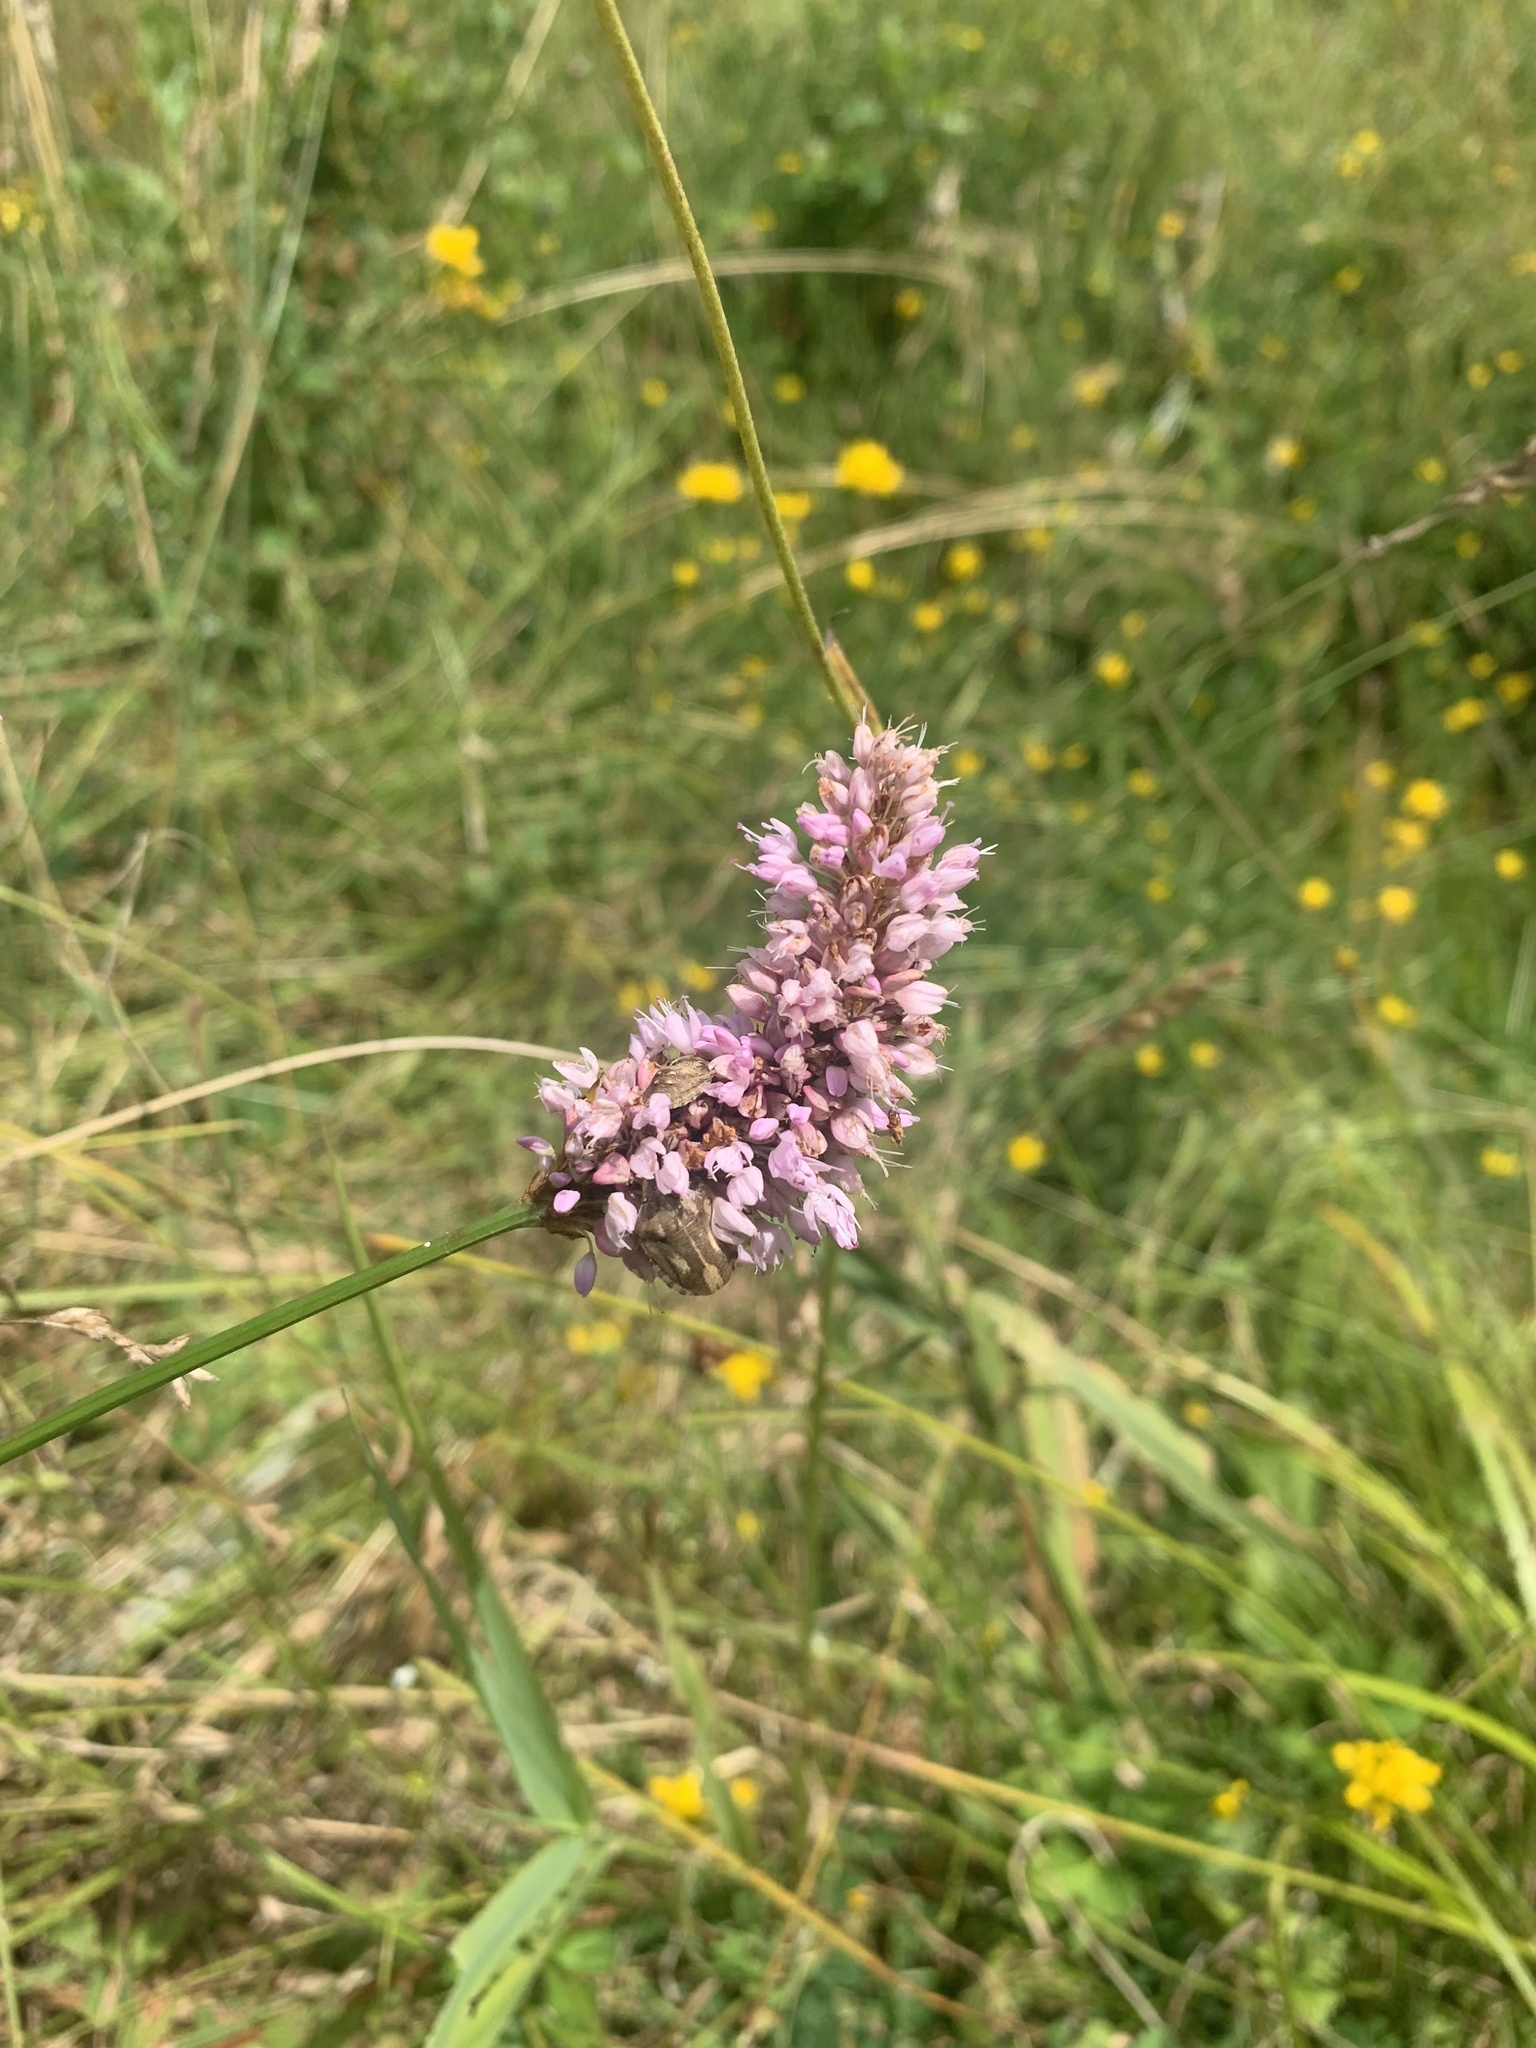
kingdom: Plantae
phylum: Tracheophyta
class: Magnoliopsida
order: Caryophyllales
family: Polygonaceae
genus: Bistorta
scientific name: Bistorta officinalis
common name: Common bistort
